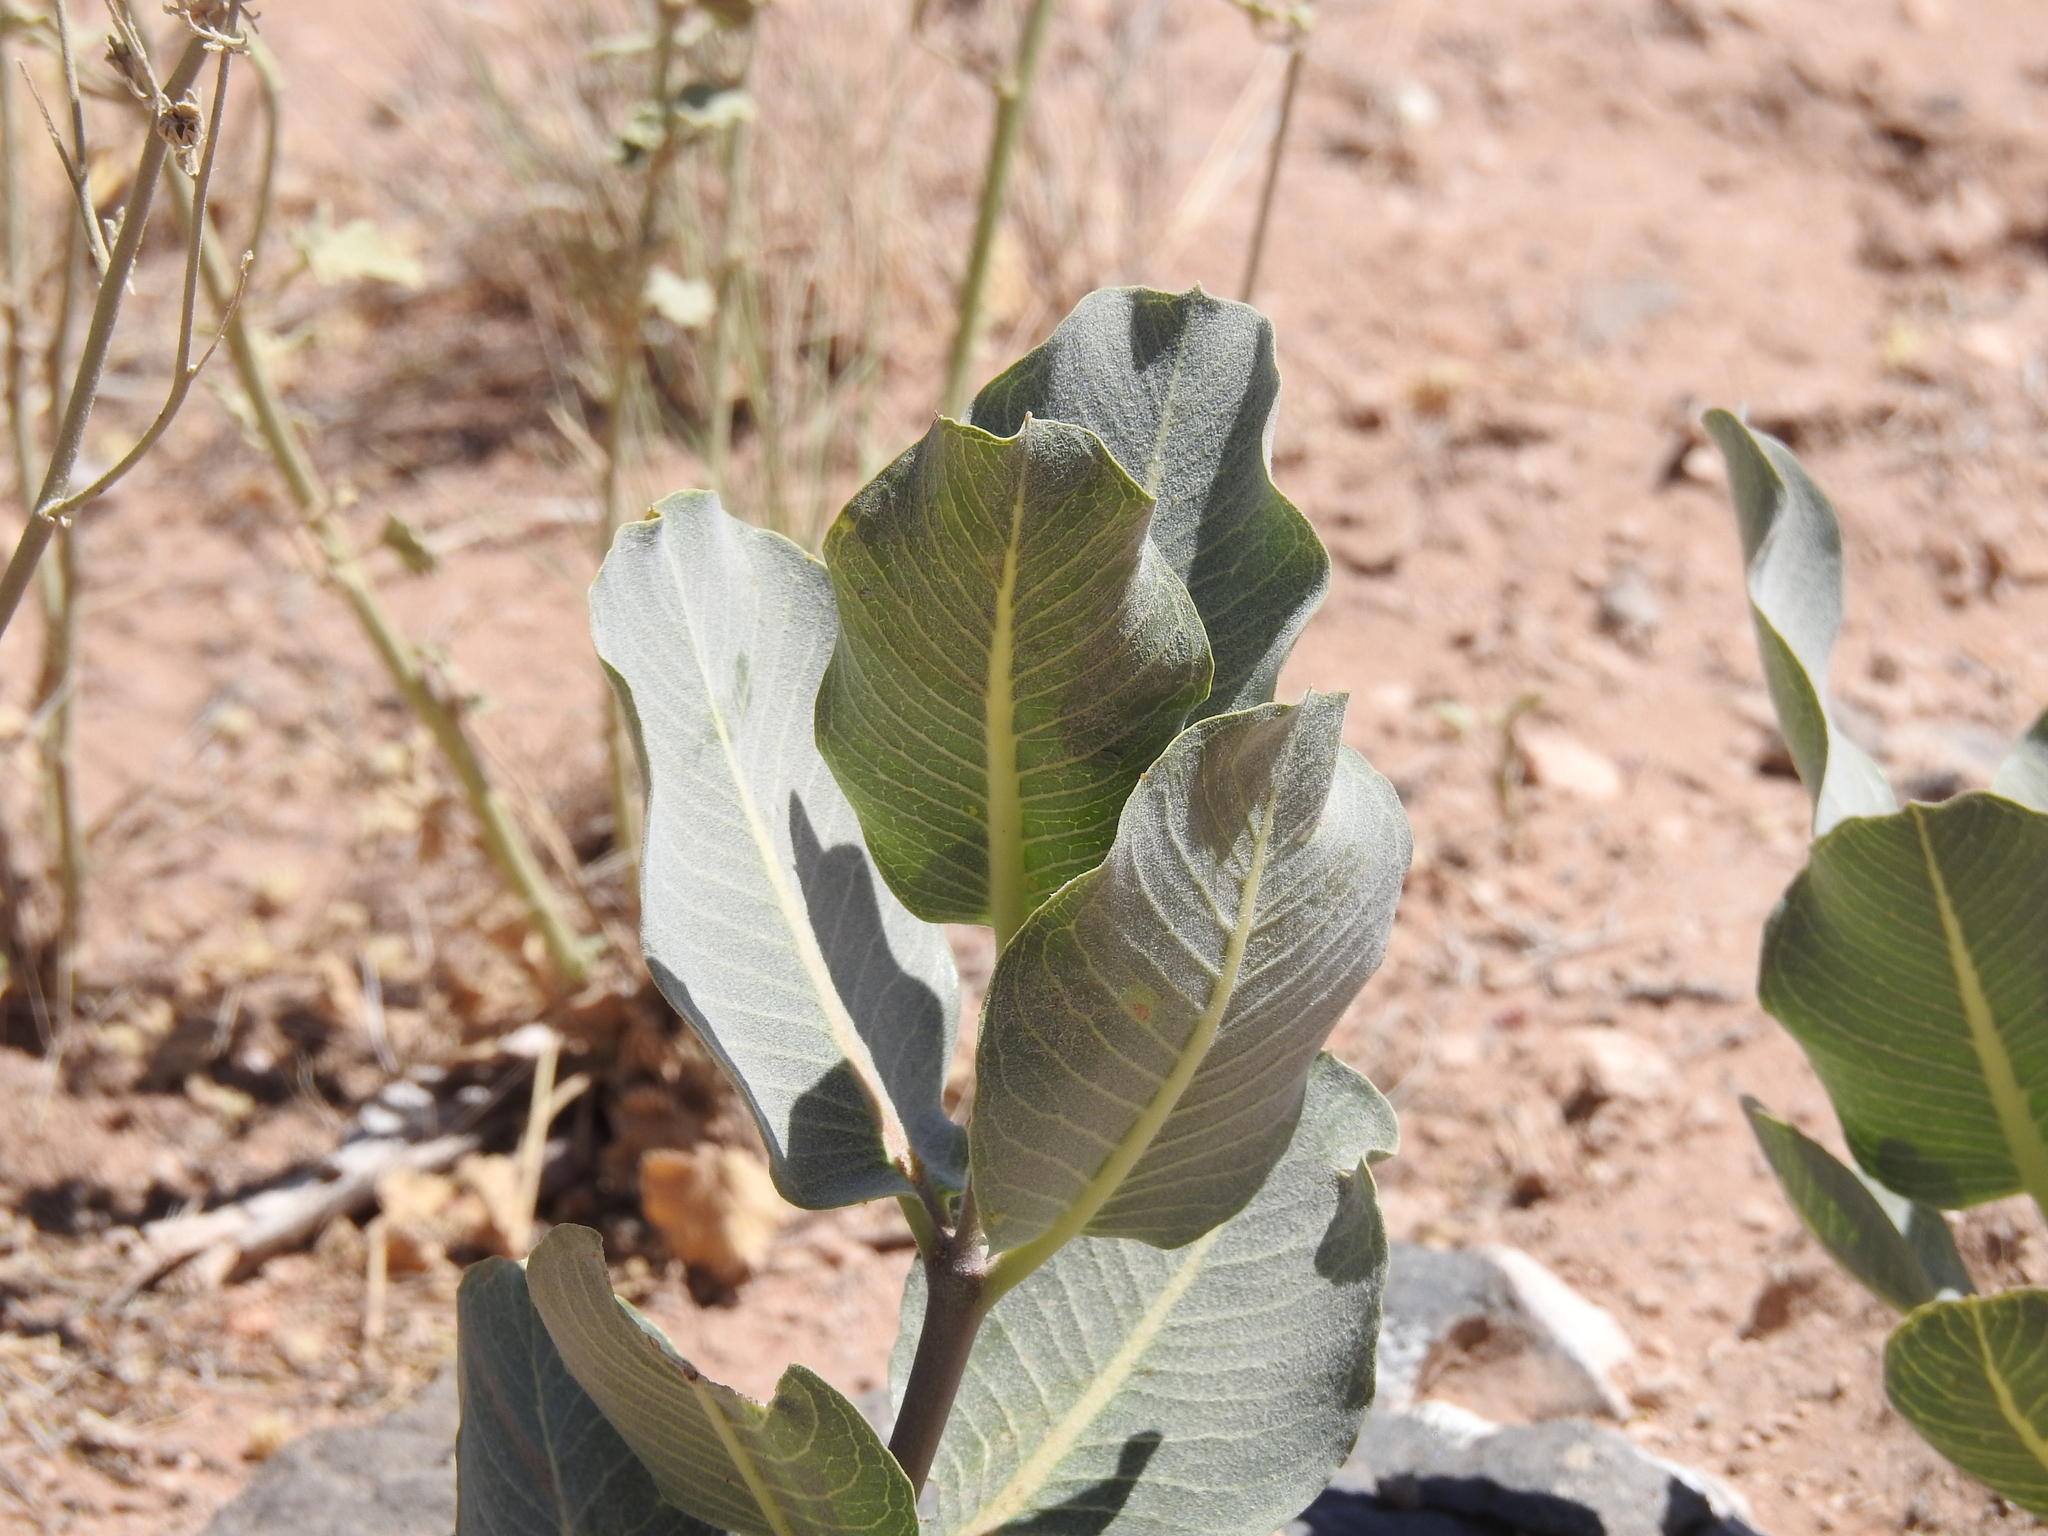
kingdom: Plantae
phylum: Tracheophyta
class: Magnoliopsida
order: Gentianales
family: Apocynaceae
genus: Asclepias
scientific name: Asclepias latifolia
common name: Broadleaf milkweed
